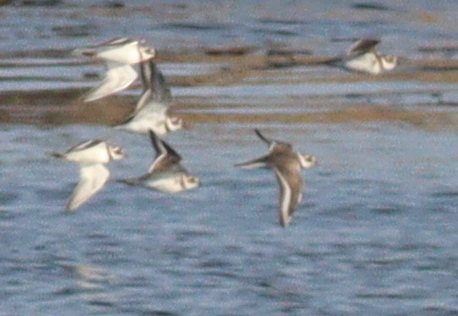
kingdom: Animalia
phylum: Chordata
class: Aves
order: Charadriiformes
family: Charadriidae
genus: Charadrius
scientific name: Charadrius hiaticula
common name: Common ringed plover
